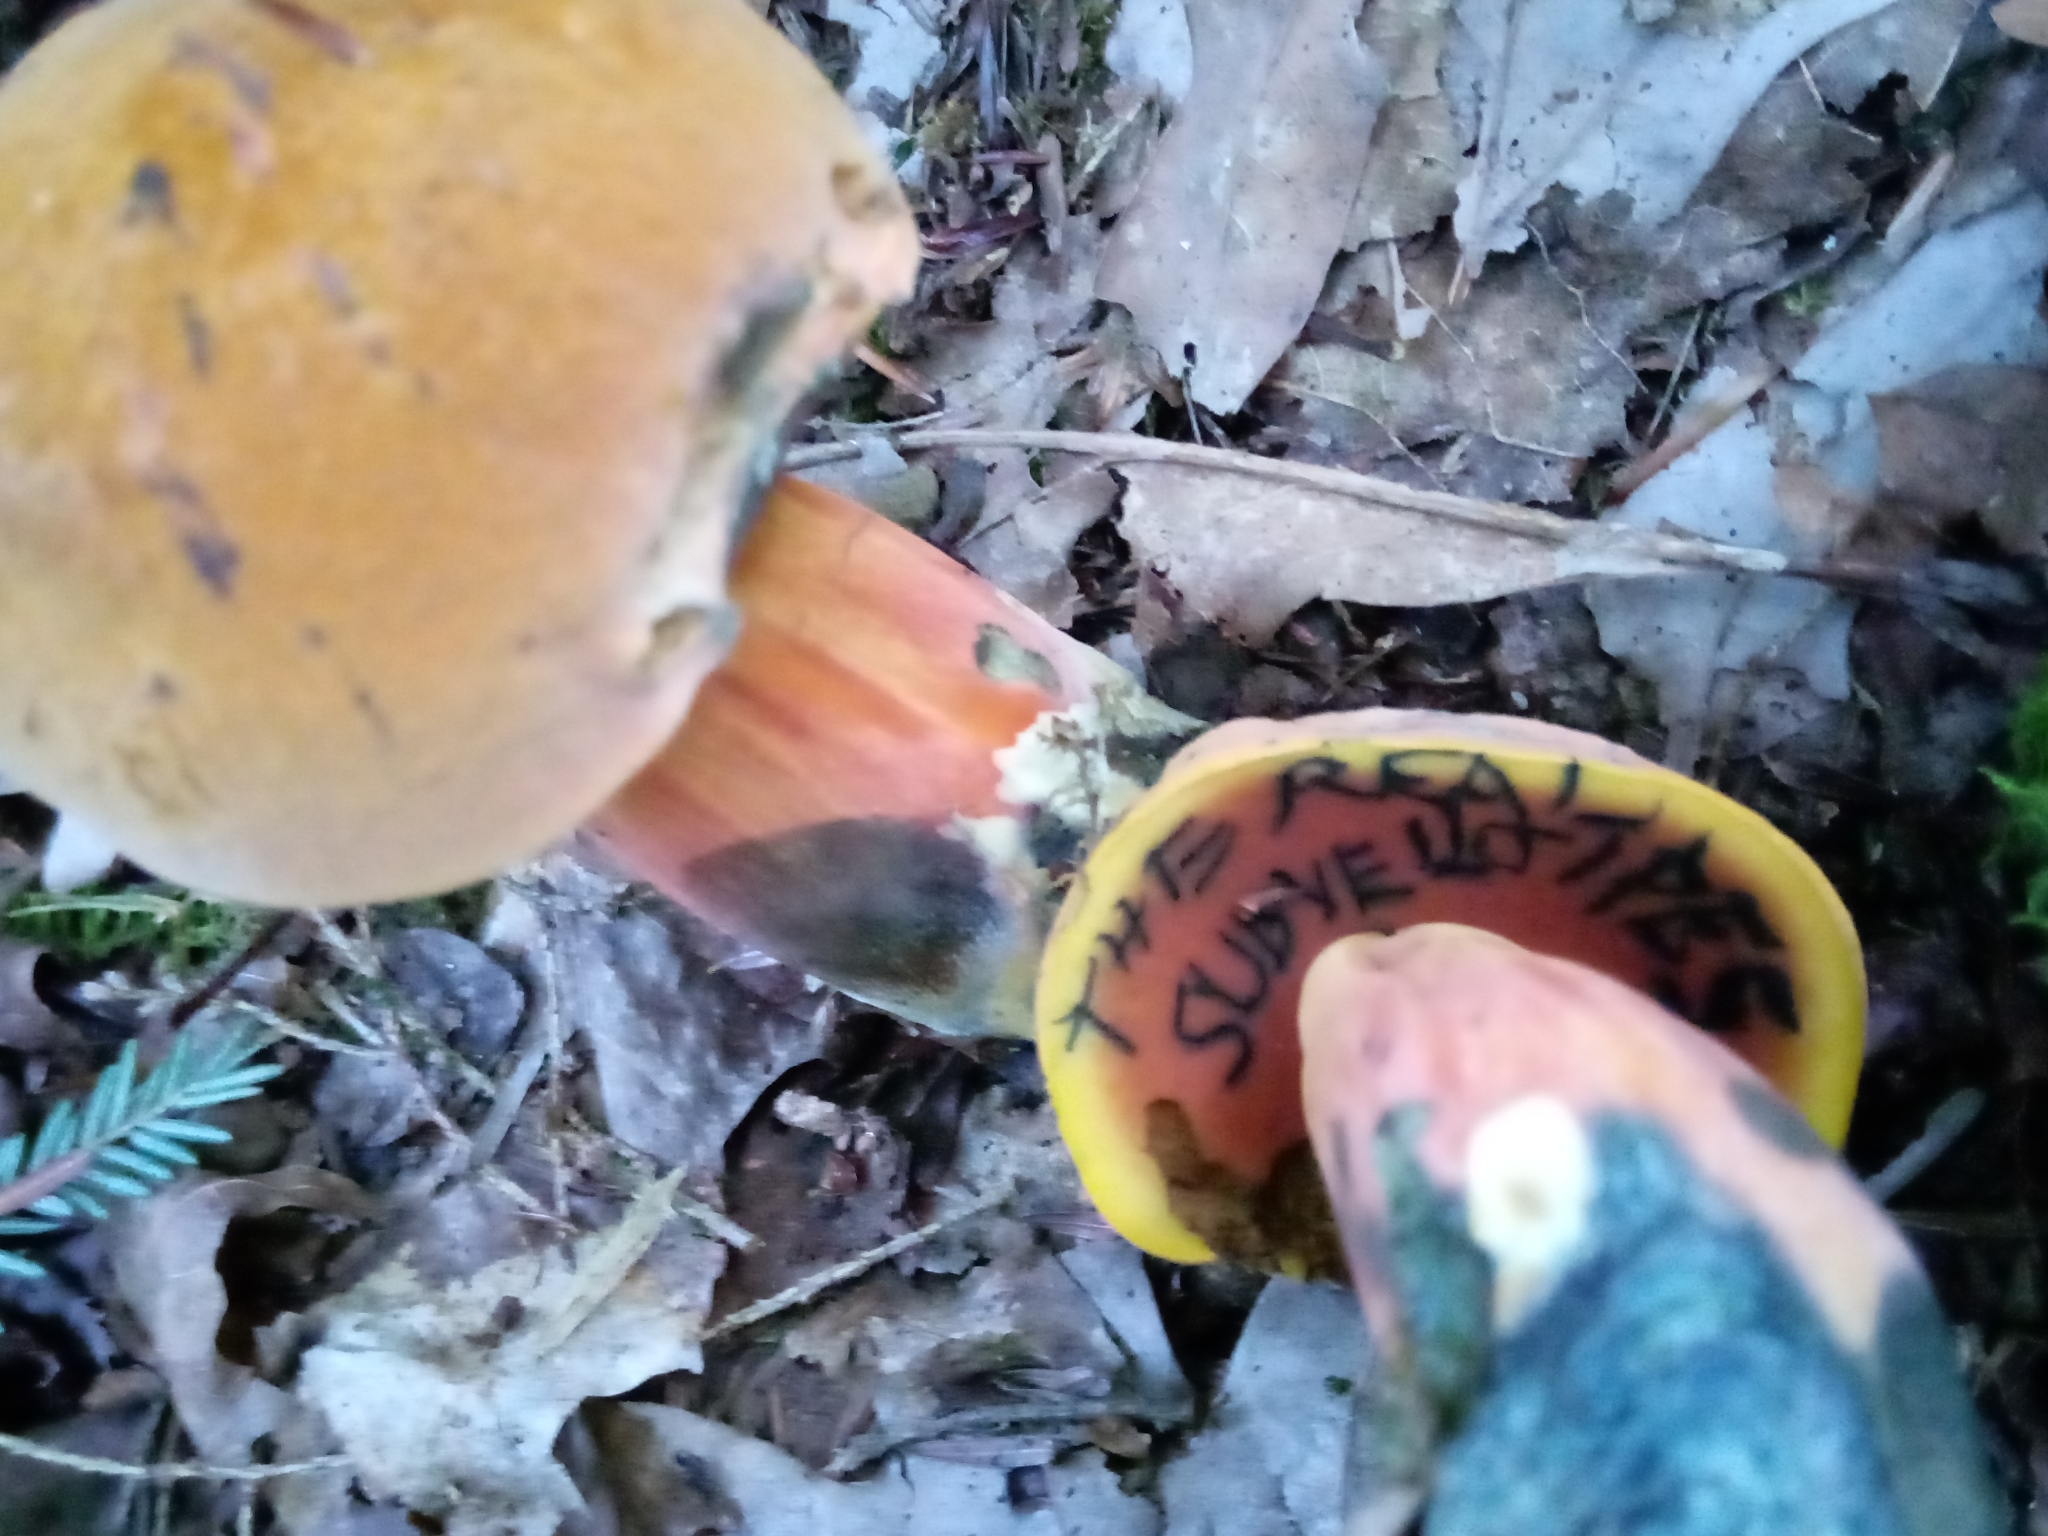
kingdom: Fungi
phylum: Basidiomycota
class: Agaricomycetes
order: Boletales
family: Boletaceae
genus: Boletus
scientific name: Boletus subvelutipes
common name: Red-mouth bolete
